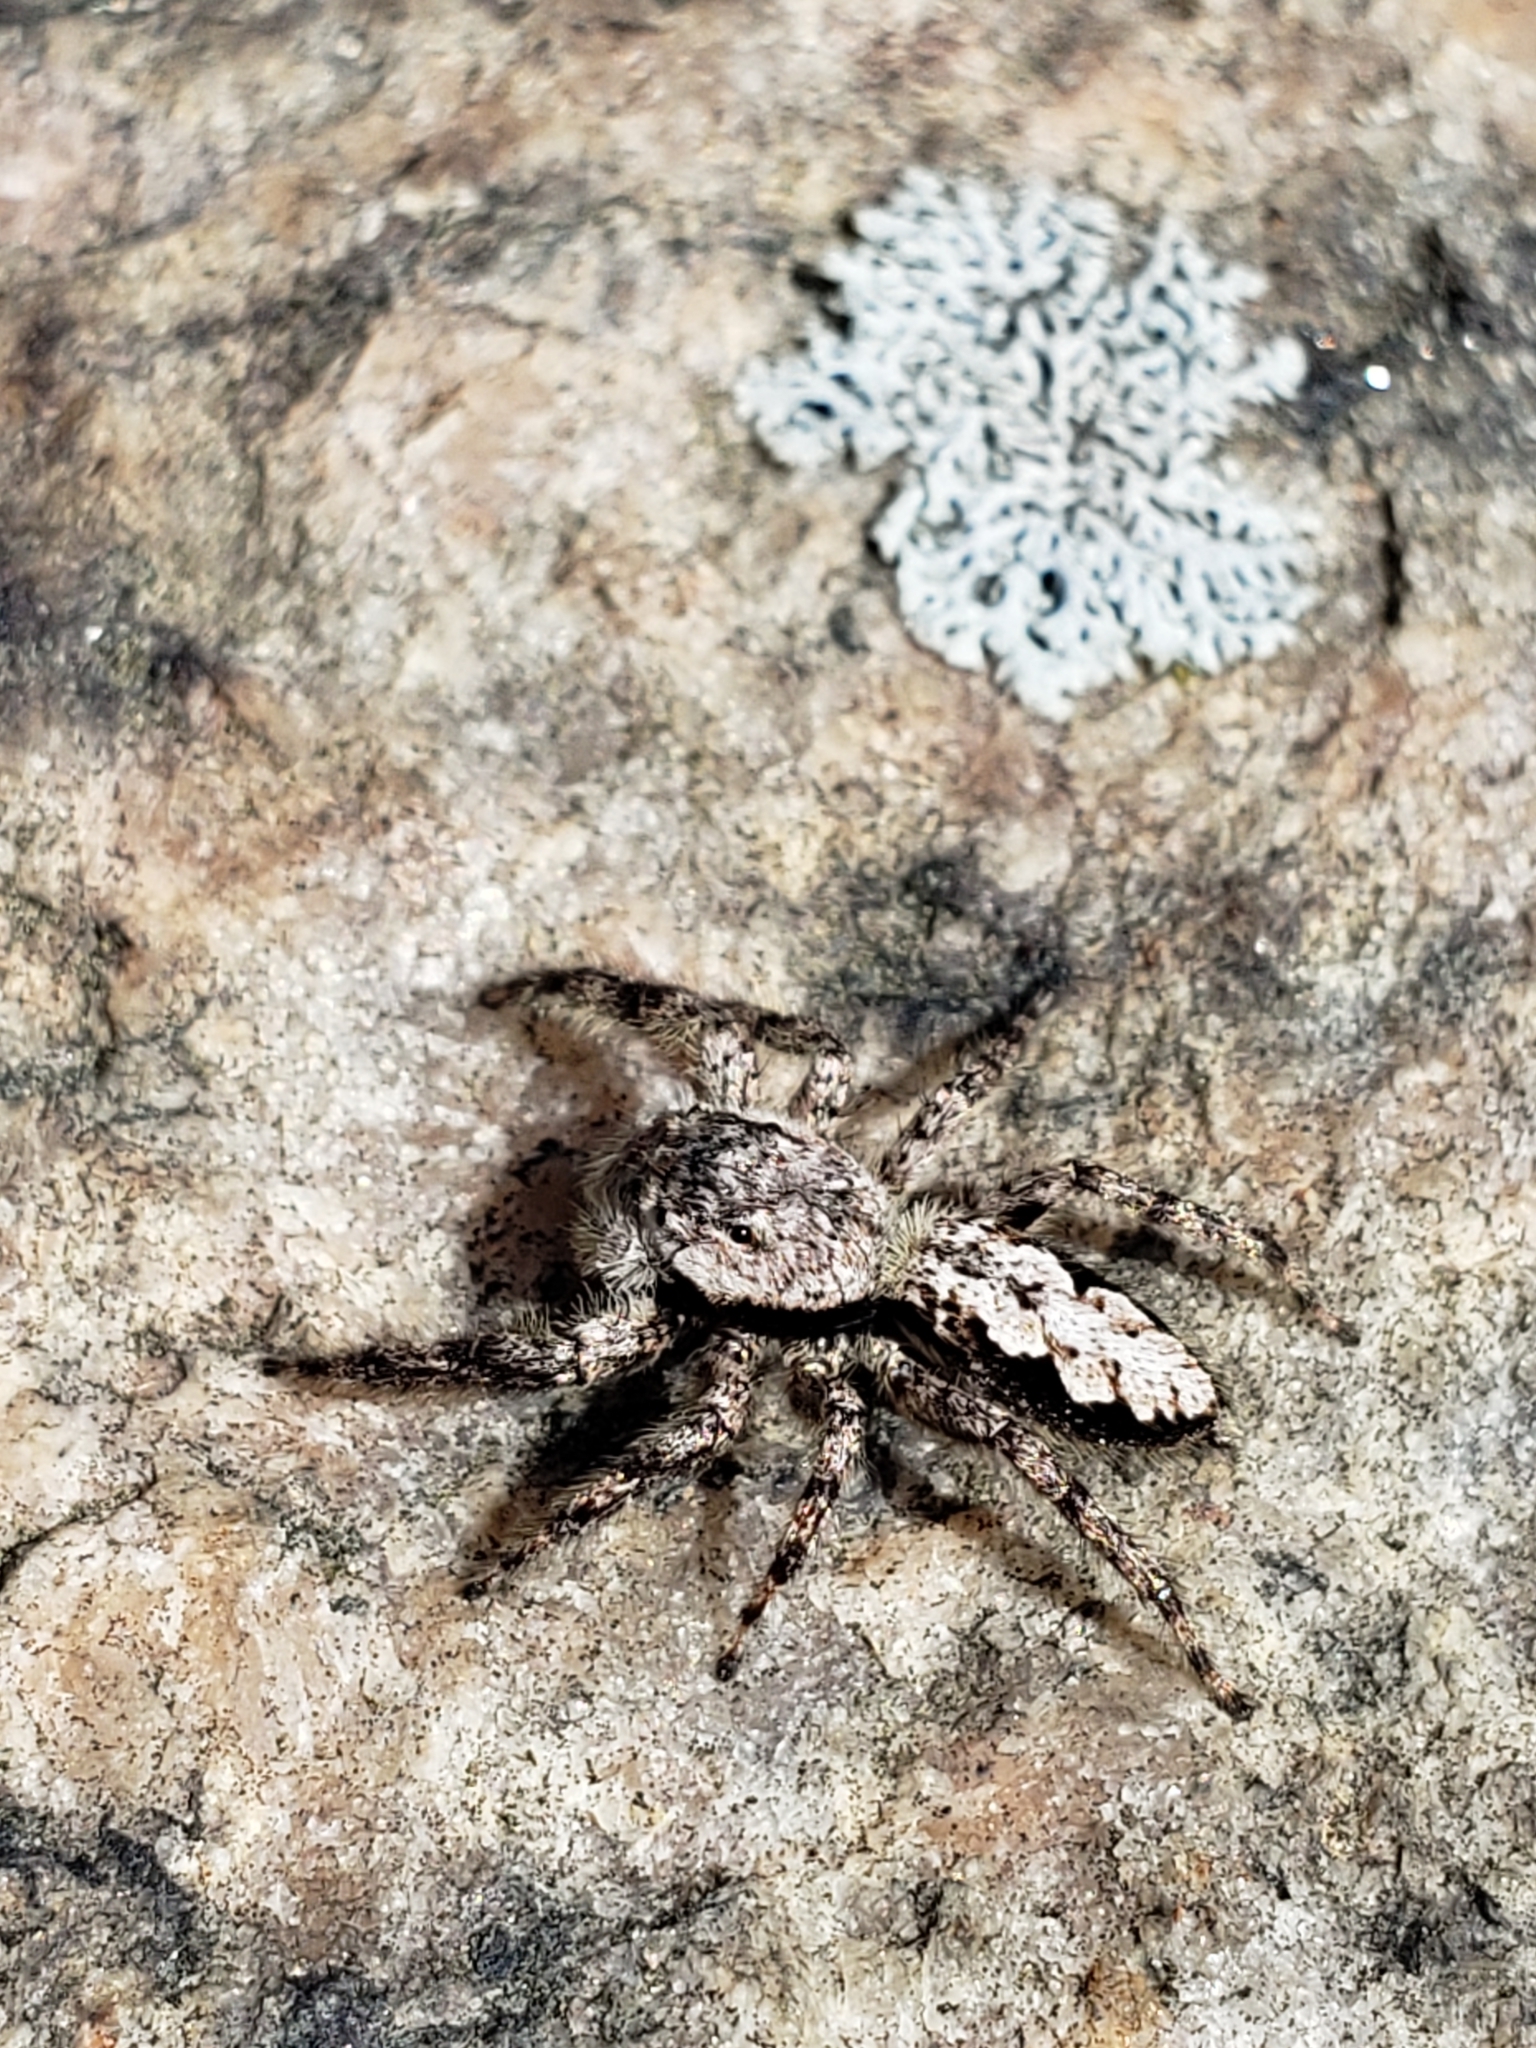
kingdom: Animalia
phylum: Arthropoda
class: Arachnida
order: Araneae
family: Salticidae
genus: Platycryptus
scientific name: Platycryptus undatus
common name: Tan jumping spider
